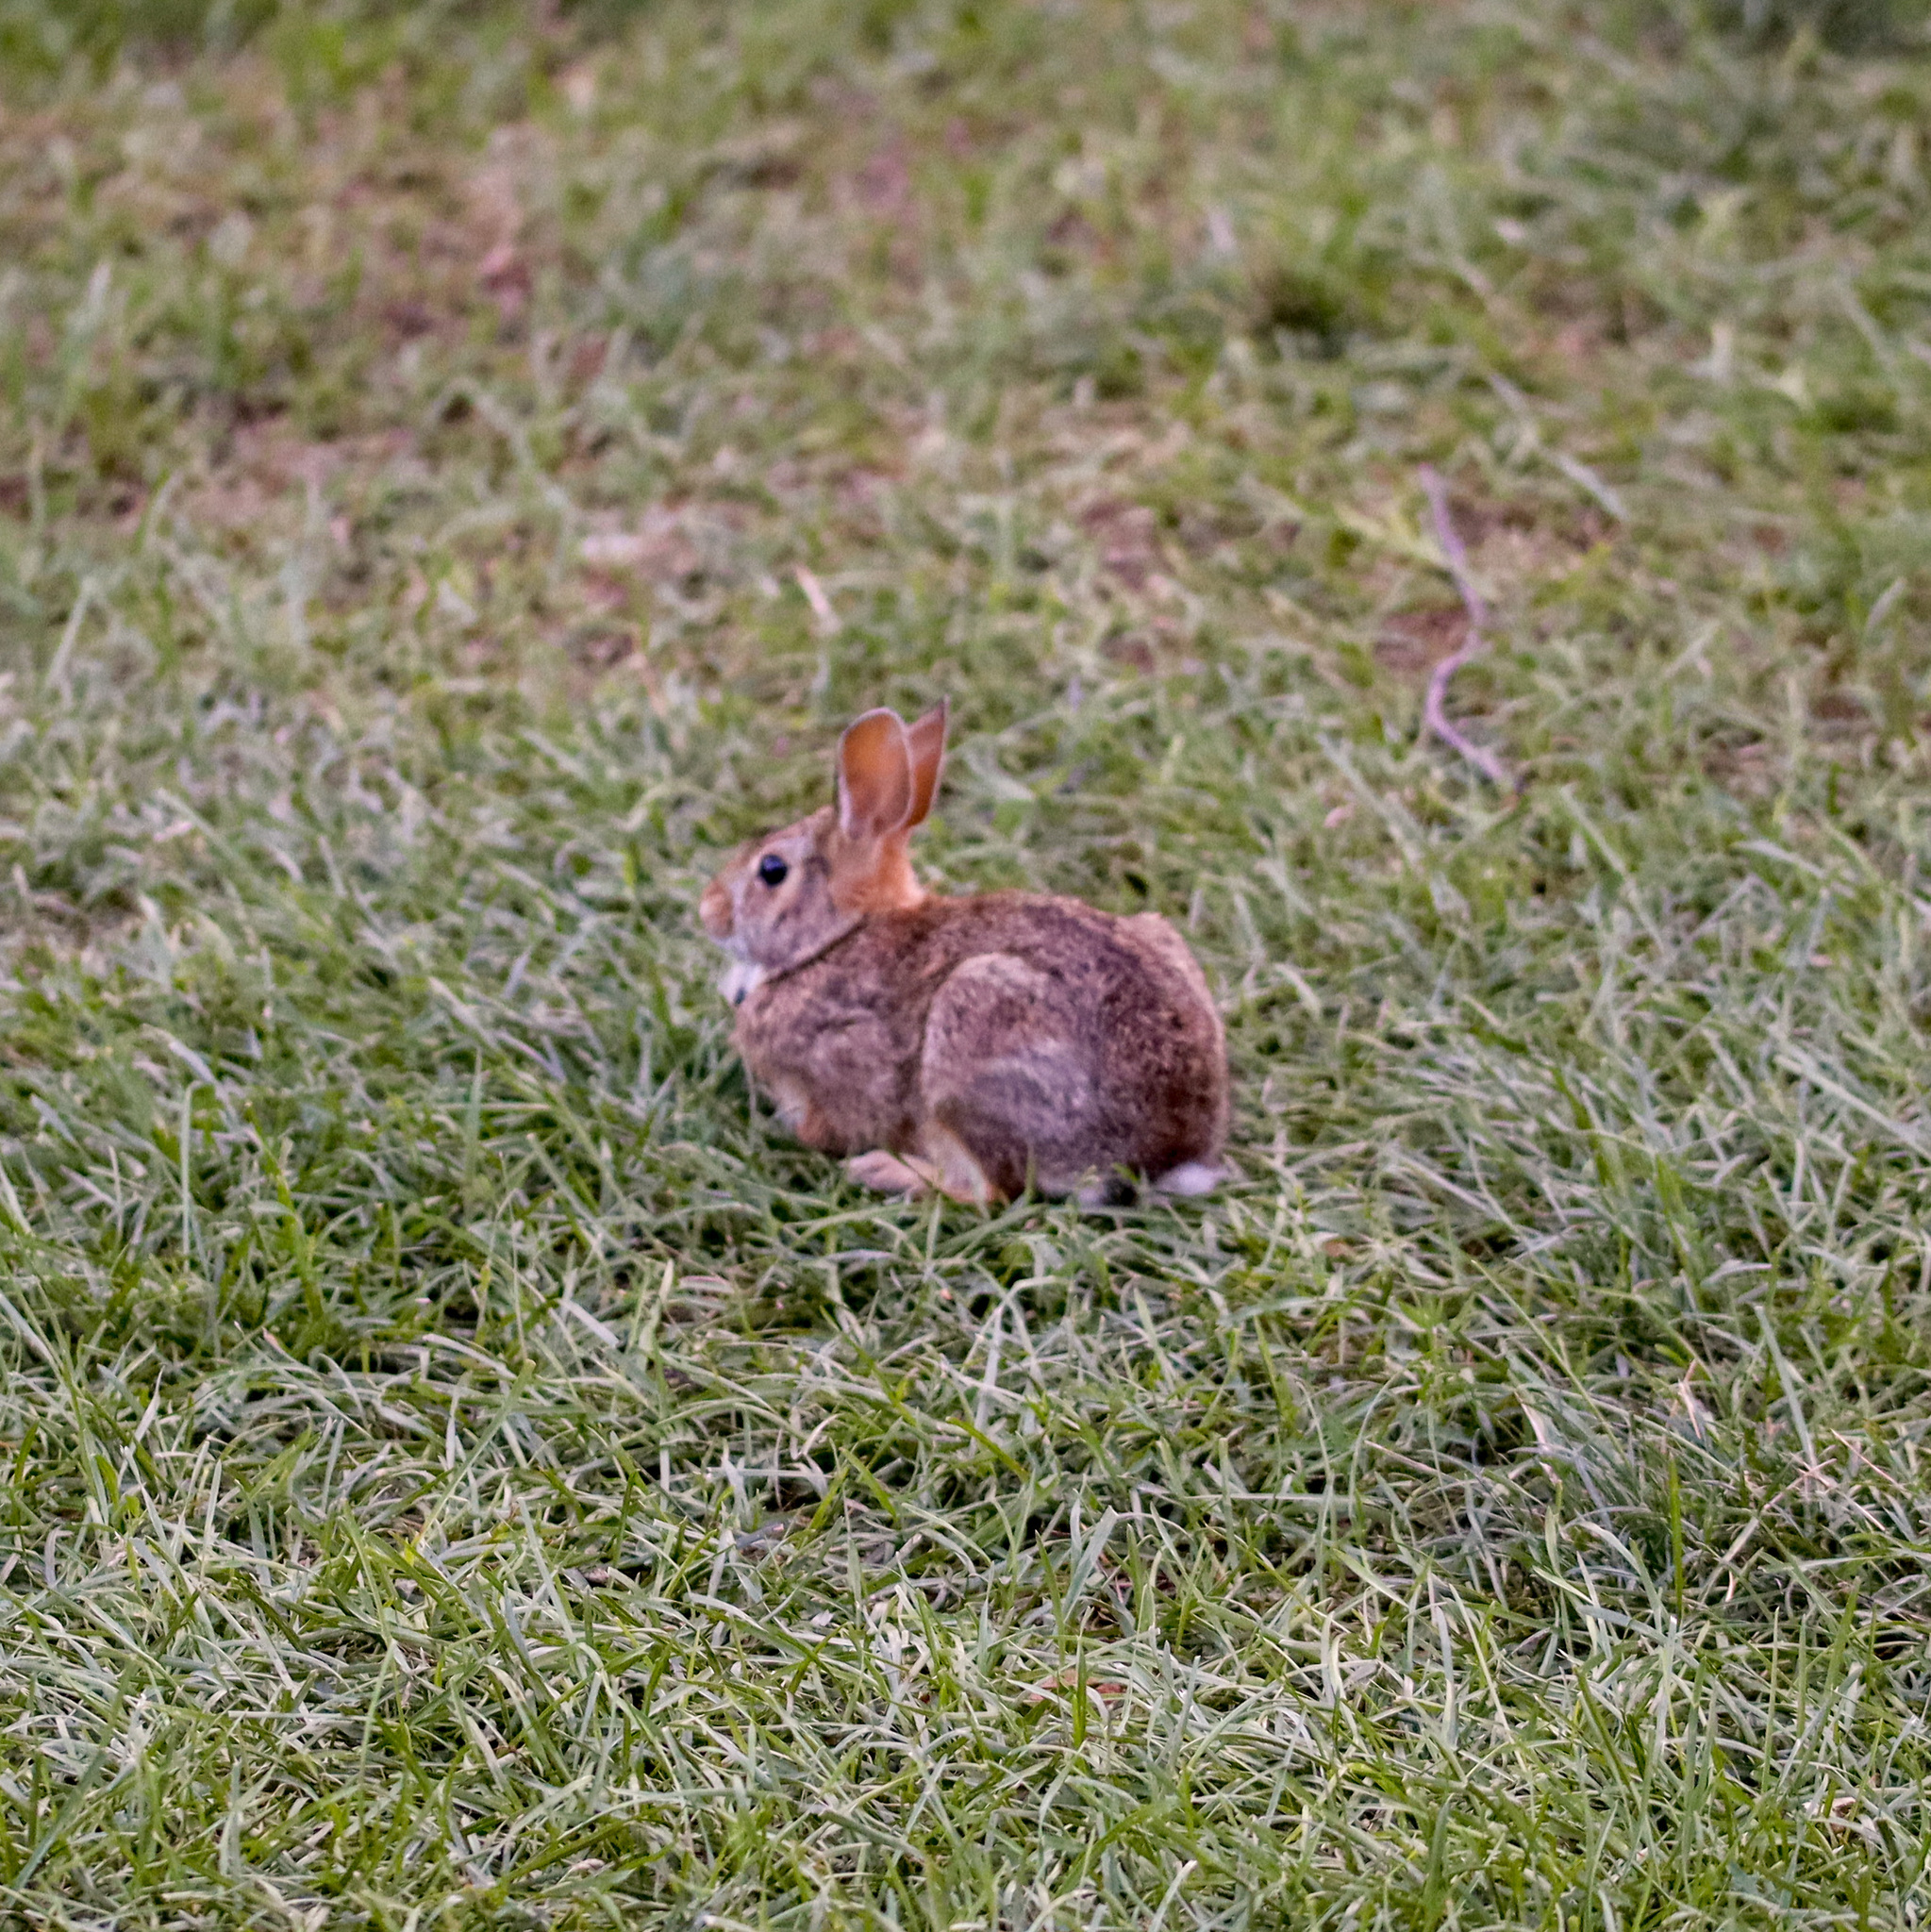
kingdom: Animalia
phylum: Chordata
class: Mammalia
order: Lagomorpha
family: Leporidae
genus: Sylvilagus
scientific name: Sylvilagus floridanus
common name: Eastern cottontail
